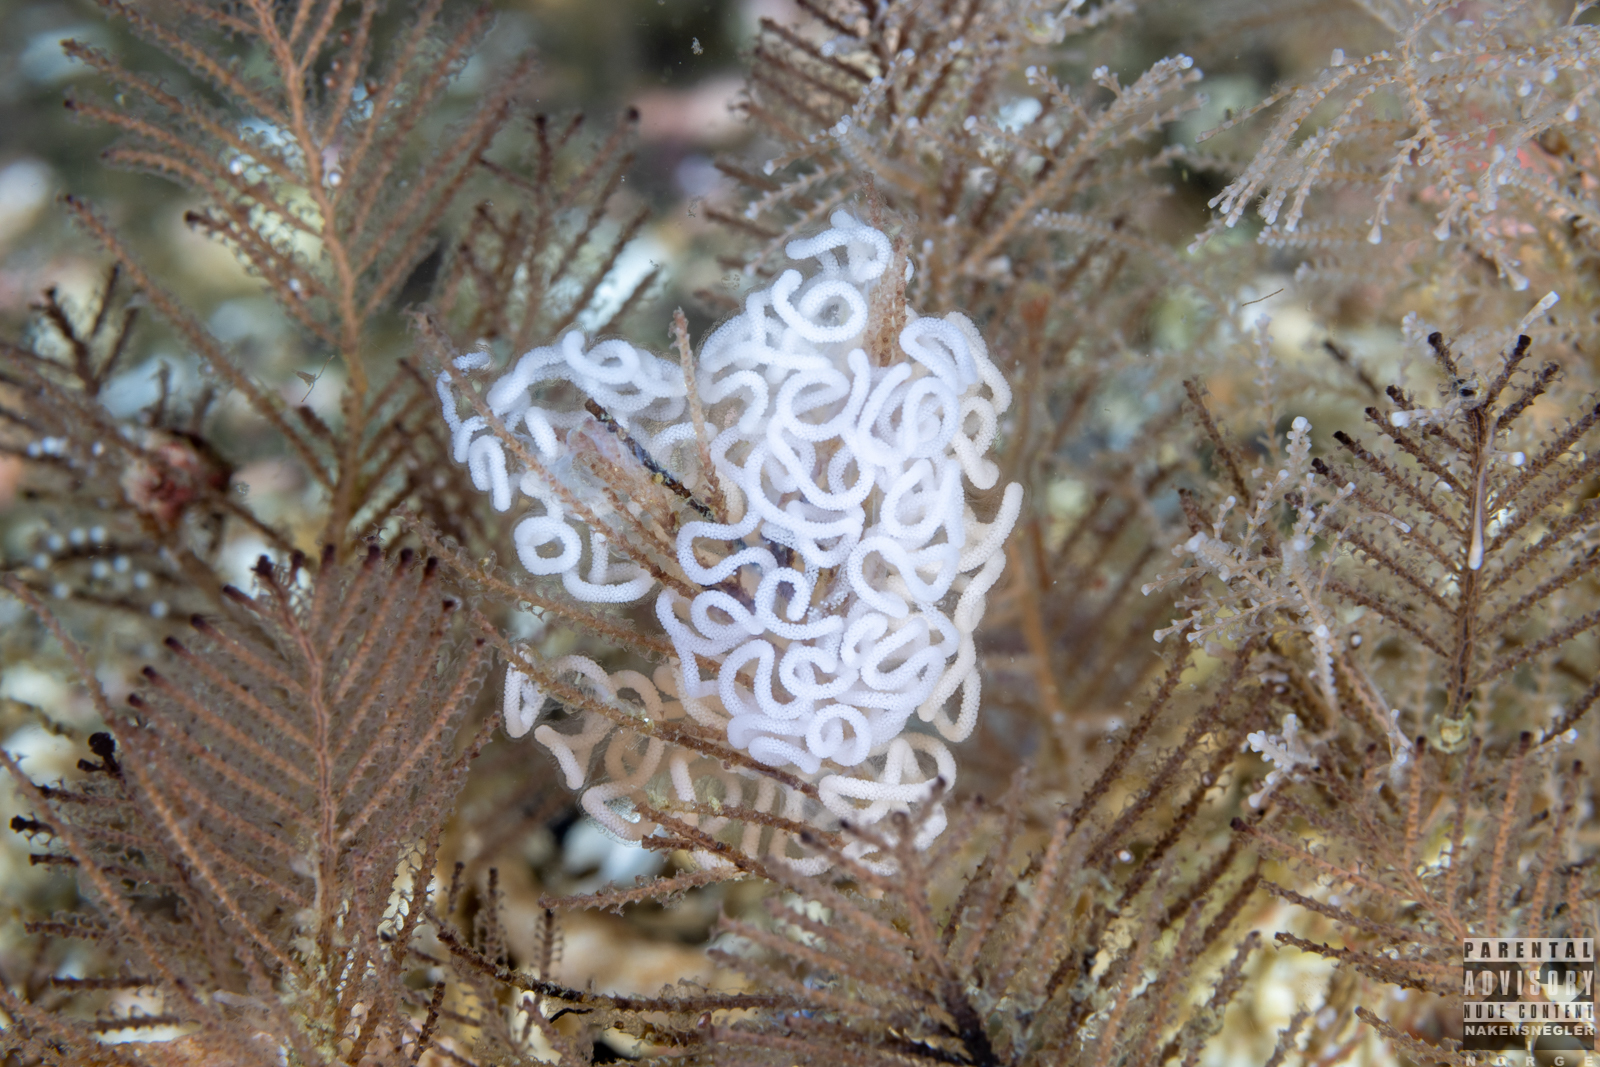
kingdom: Animalia
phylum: Mollusca
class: Gastropoda
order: Nudibranchia
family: Dendronotidae
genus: Dendronotus
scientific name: Dendronotus yrjargul
